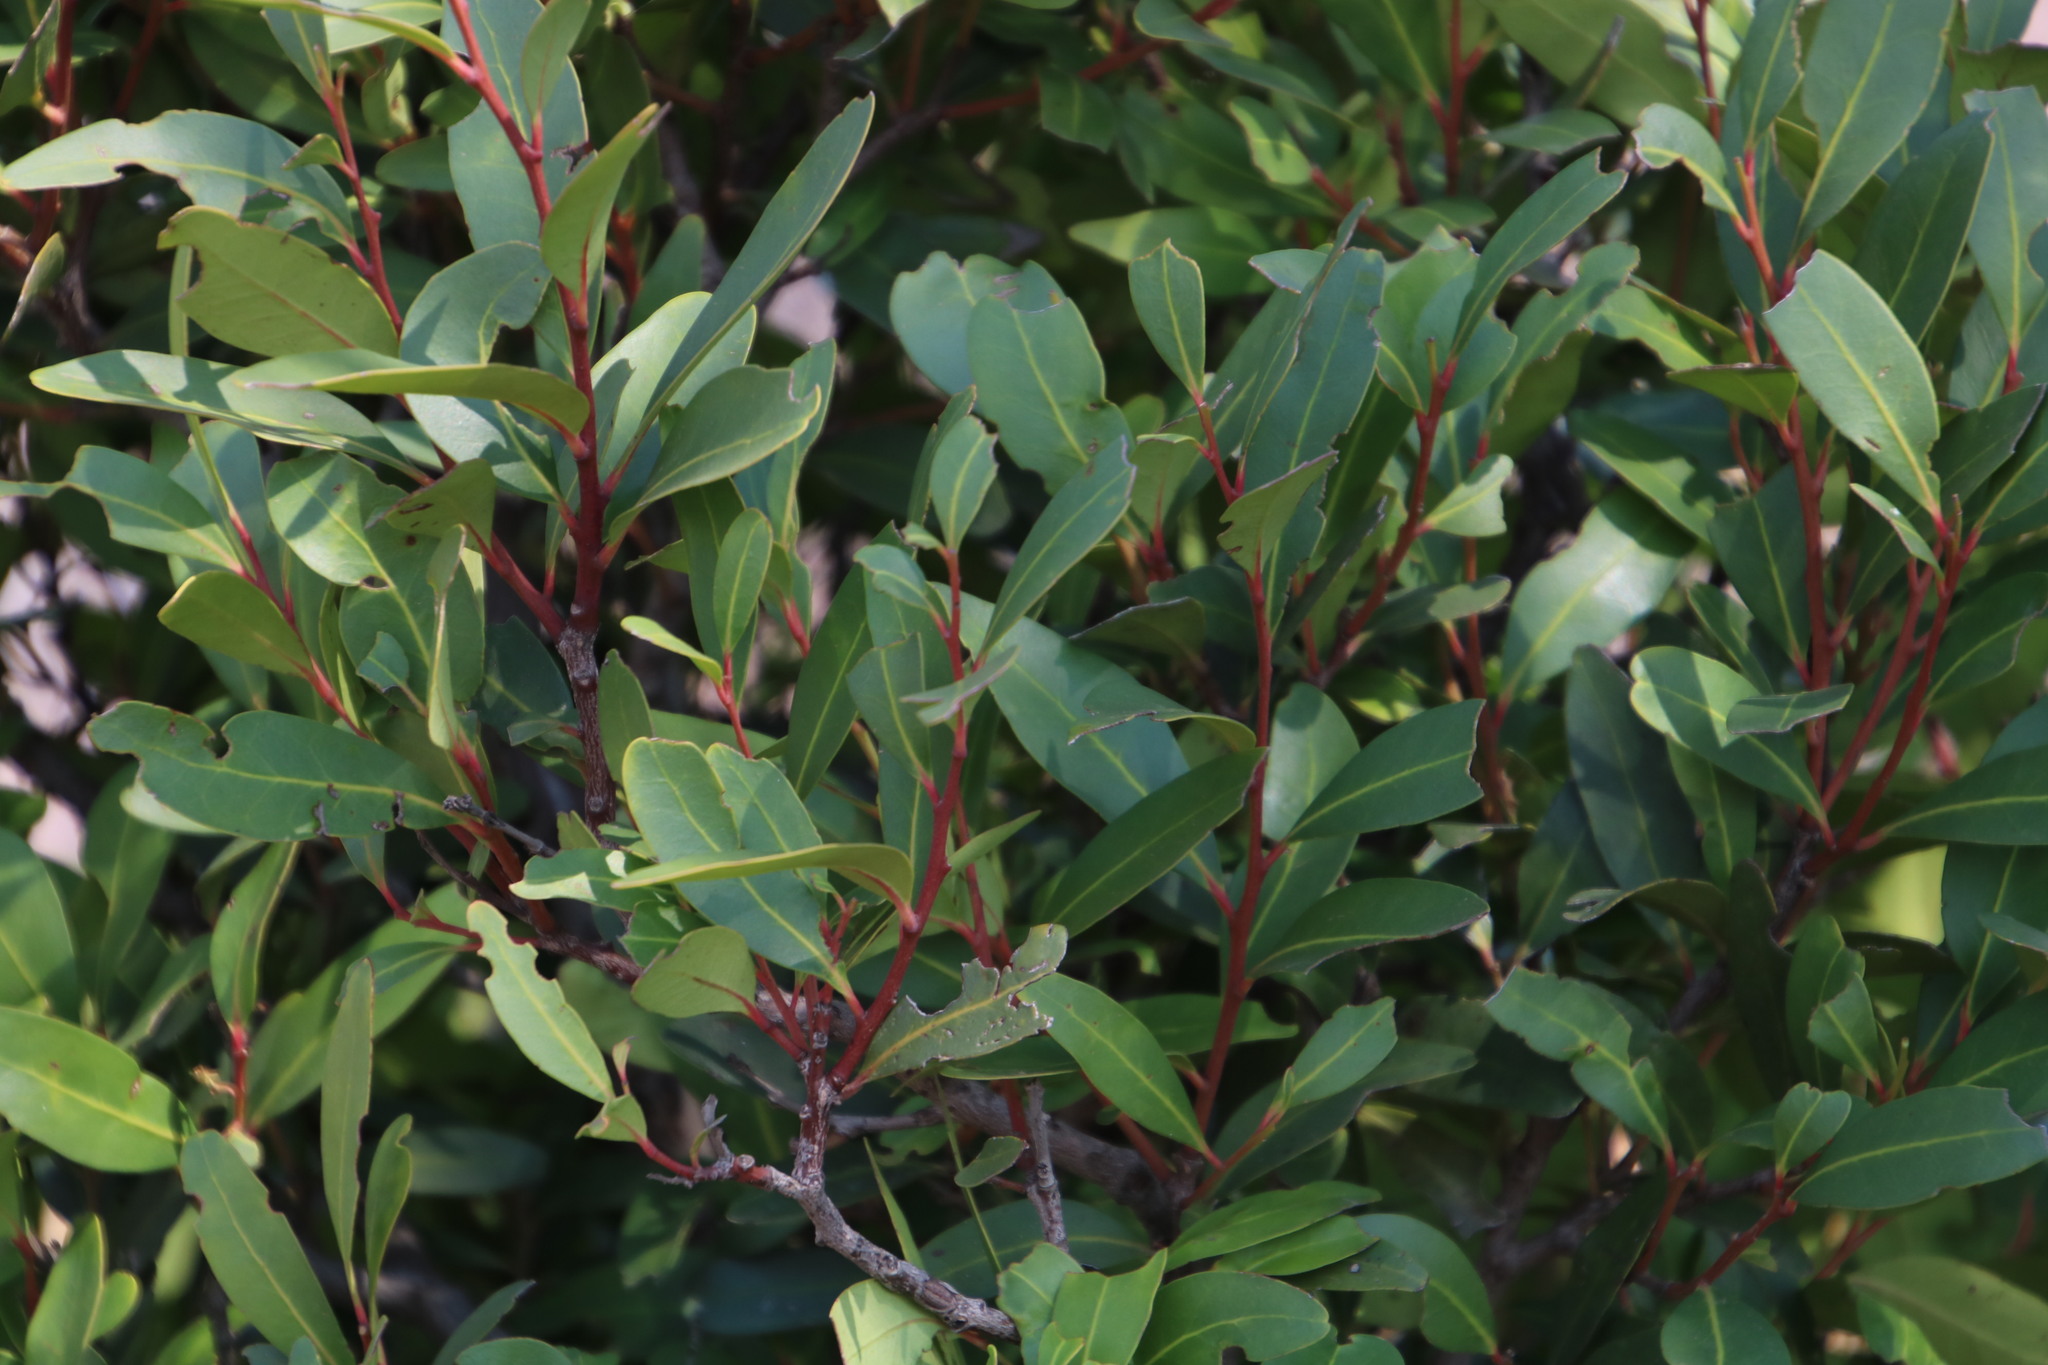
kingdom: Plantae
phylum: Tracheophyta
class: Magnoliopsida
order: Celastrales
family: Celastraceae
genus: Pterocelastrus
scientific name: Pterocelastrus echinatus
